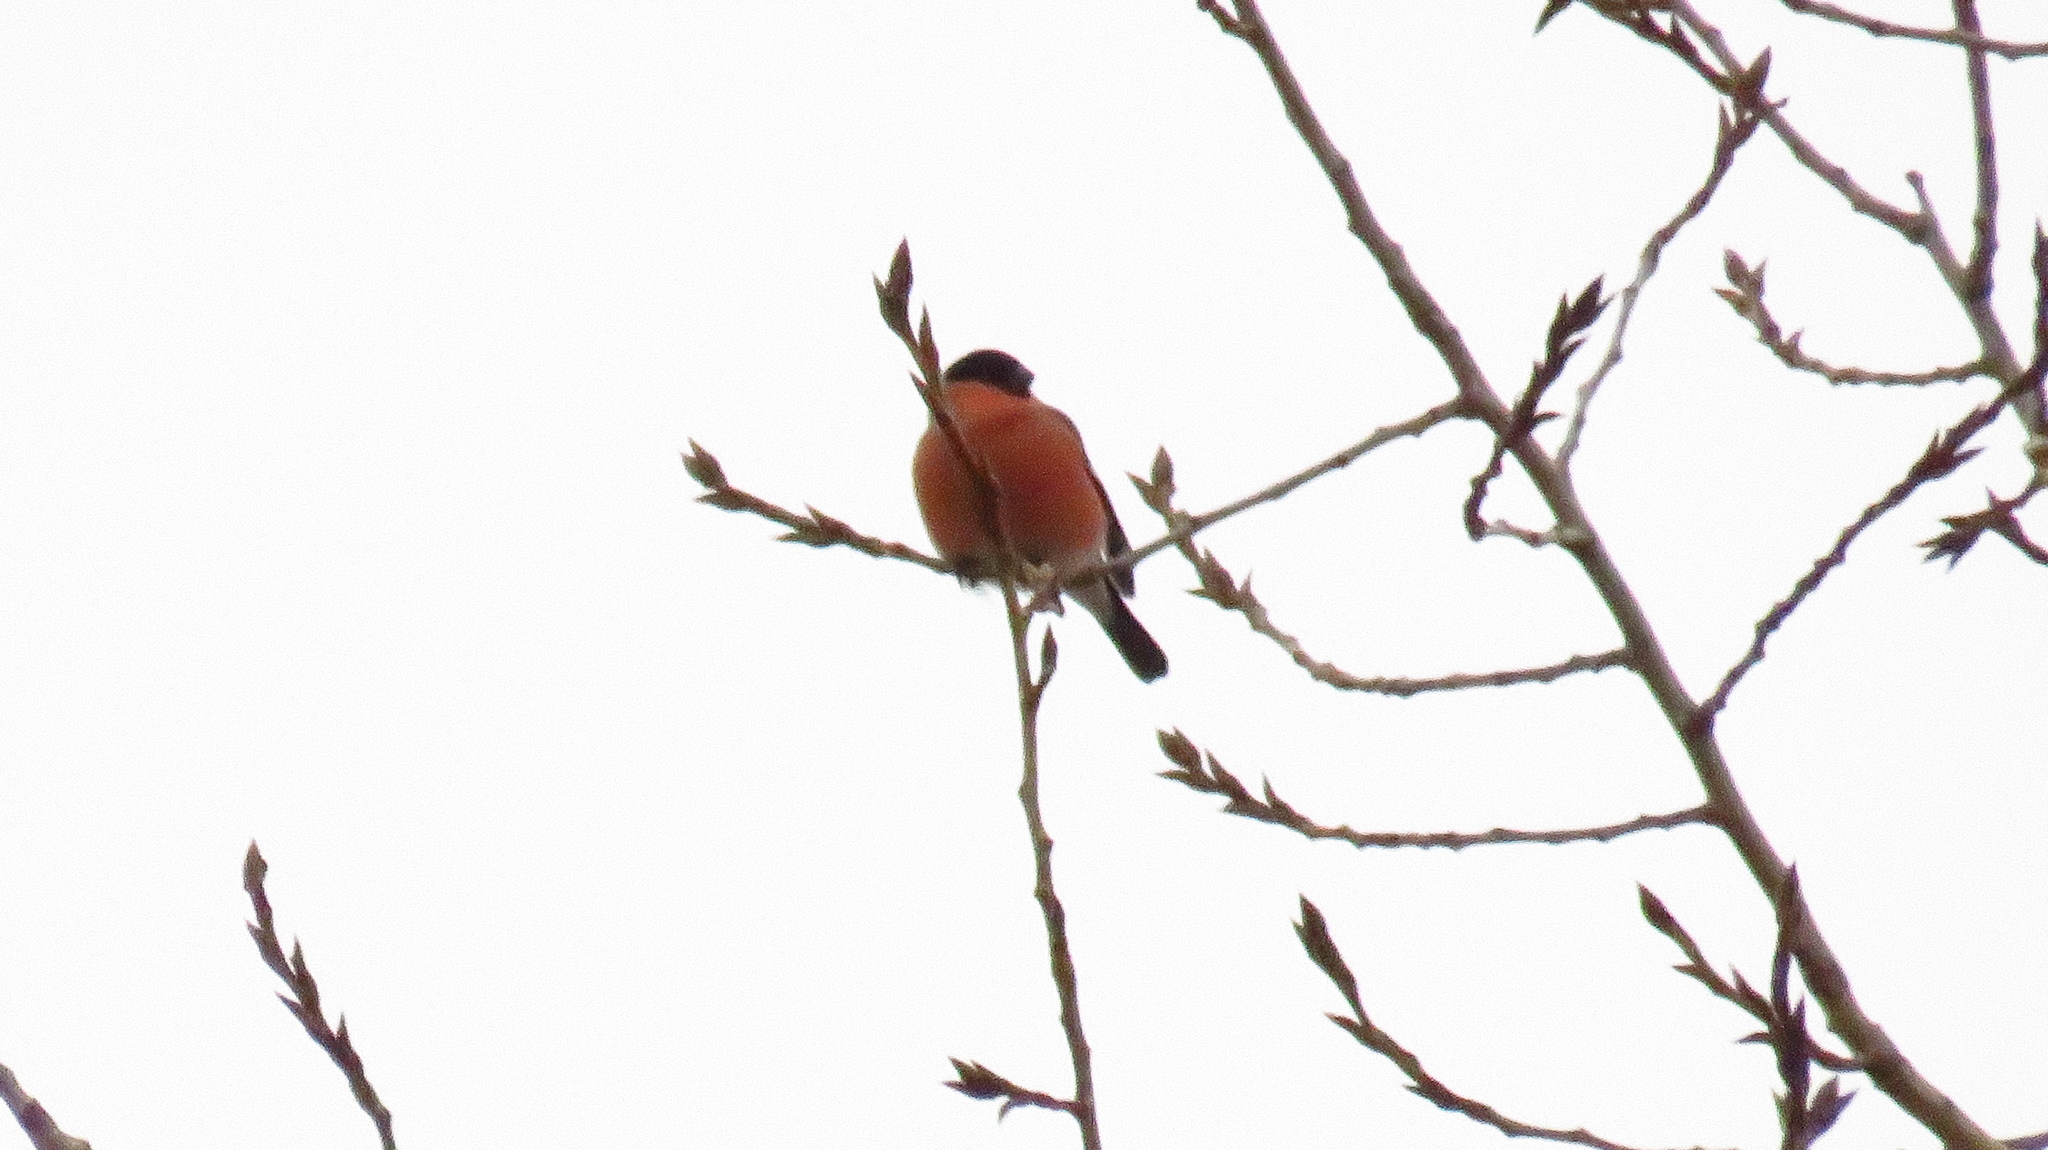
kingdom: Animalia
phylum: Chordata
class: Aves
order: Passeriformes
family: Fringillidae
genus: Pyrrhula
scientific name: Pyrrhula pyrrhula
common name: Eurasian bullfinch
